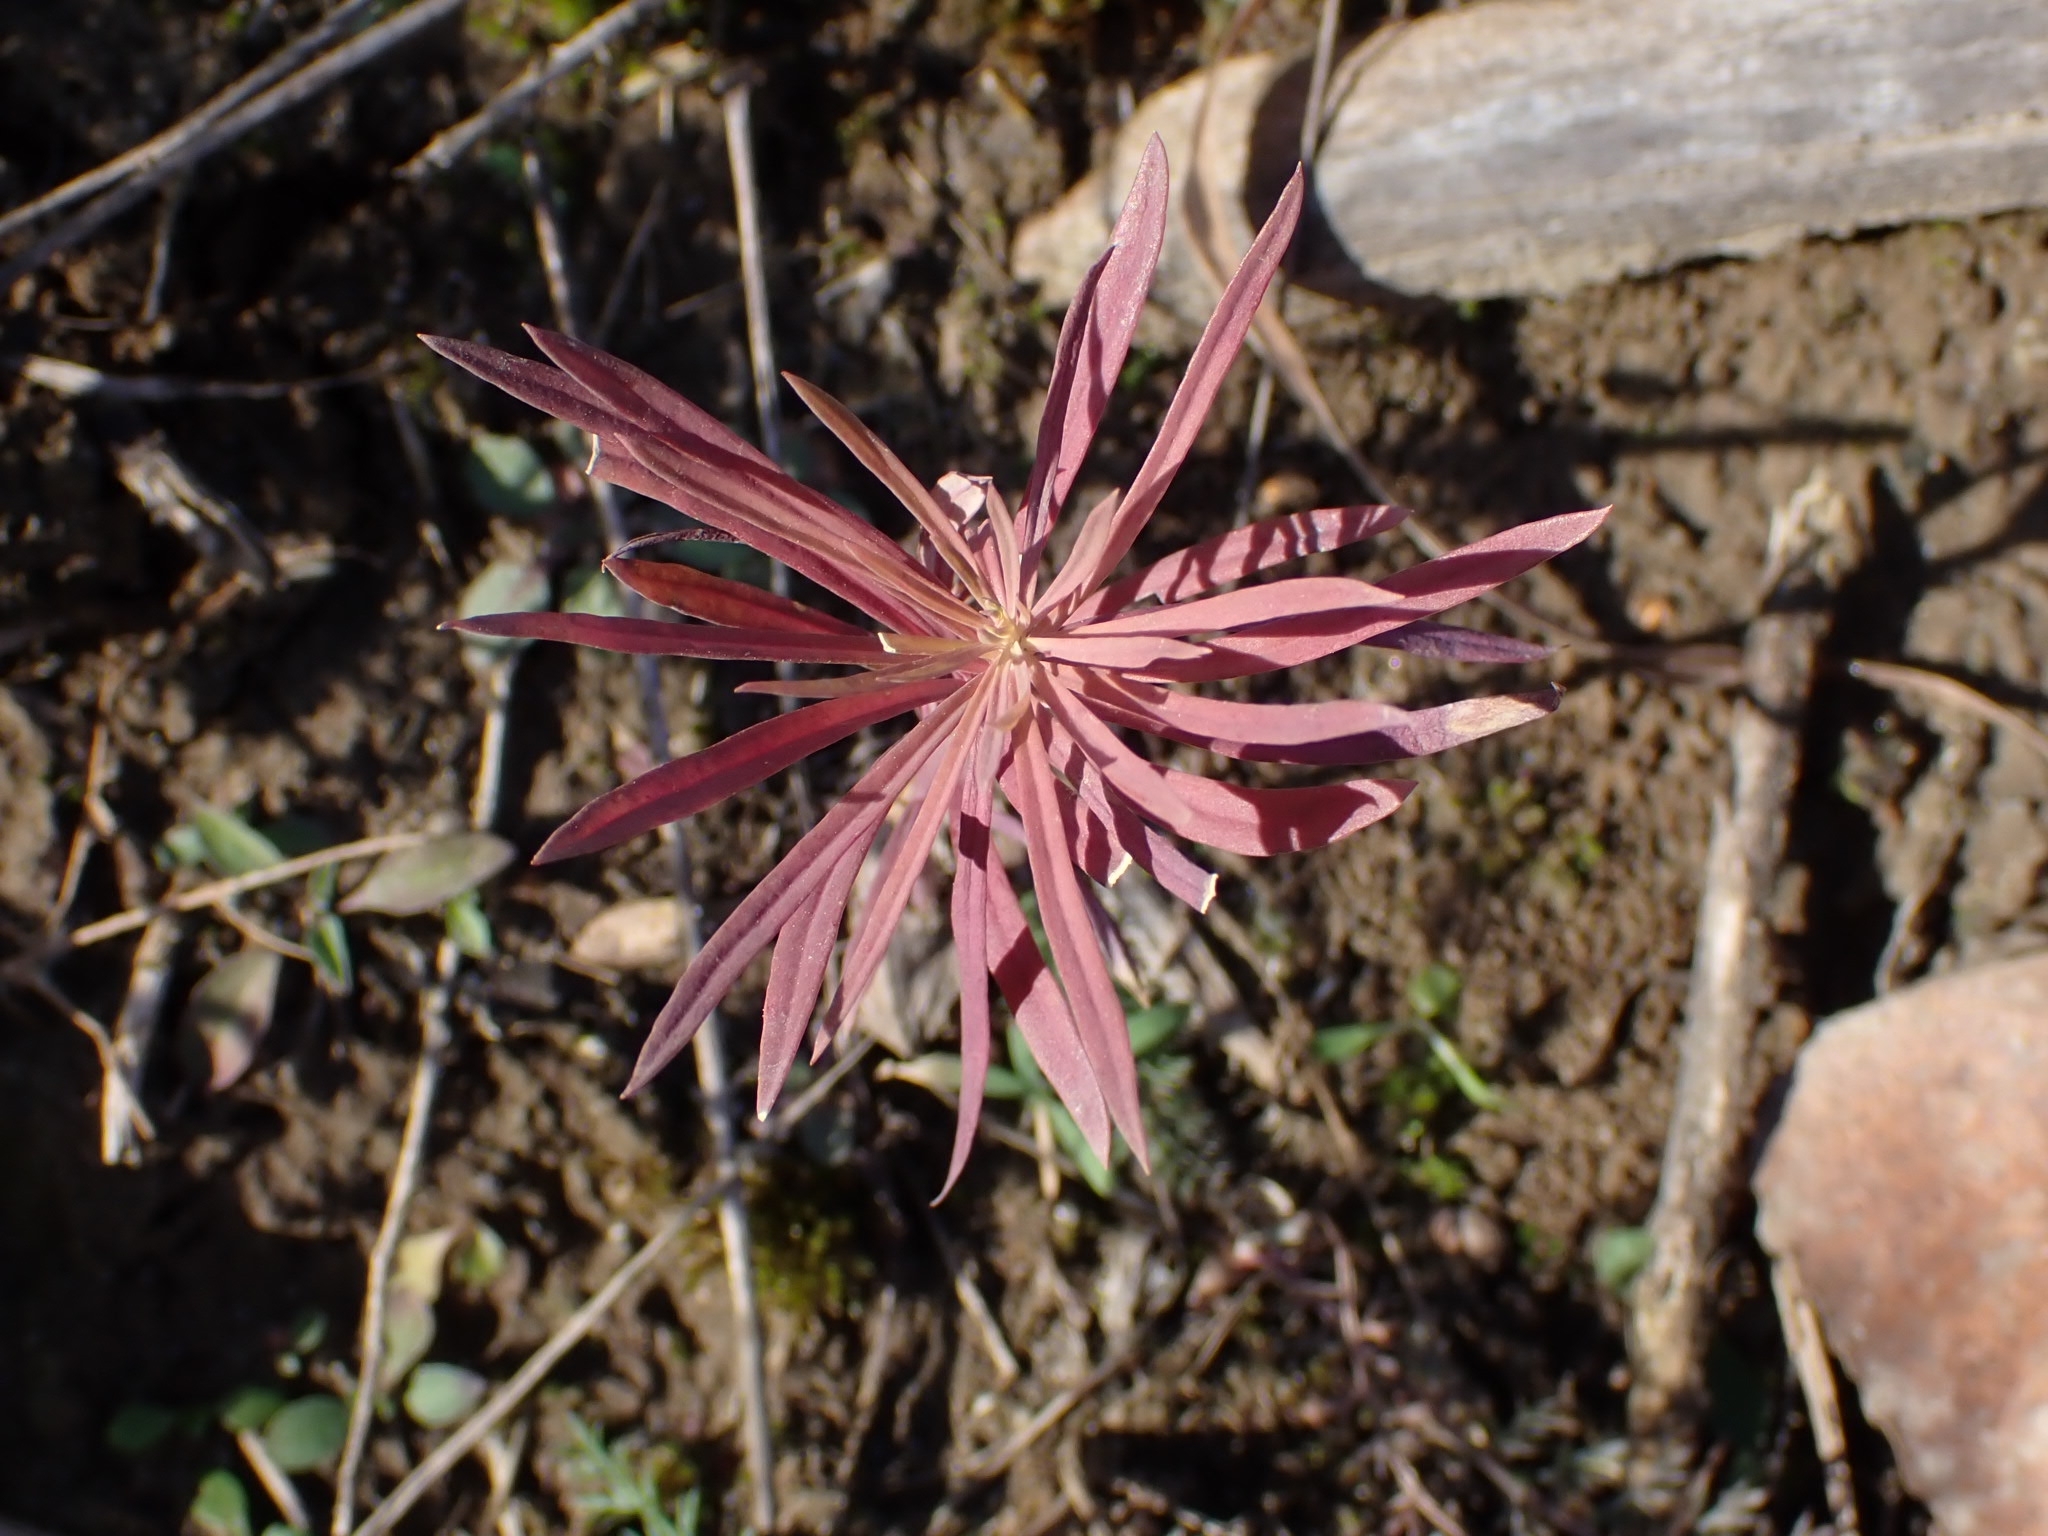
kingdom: Plantae
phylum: Tracheophyta
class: Magnoliopsida
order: Malpighiales
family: Euphorbiaceae
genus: Euphorbia
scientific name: Euphorbia virgata
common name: Leafy spurge
